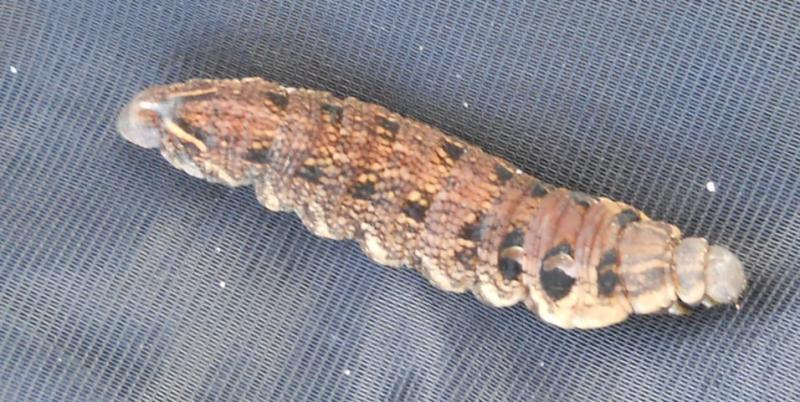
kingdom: Animalia
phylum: Arthropoda
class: Insecta
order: Lepidoptera
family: Sphingidae
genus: Deilephila
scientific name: Deilephila elpenor
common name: Elephant hawk-moth
